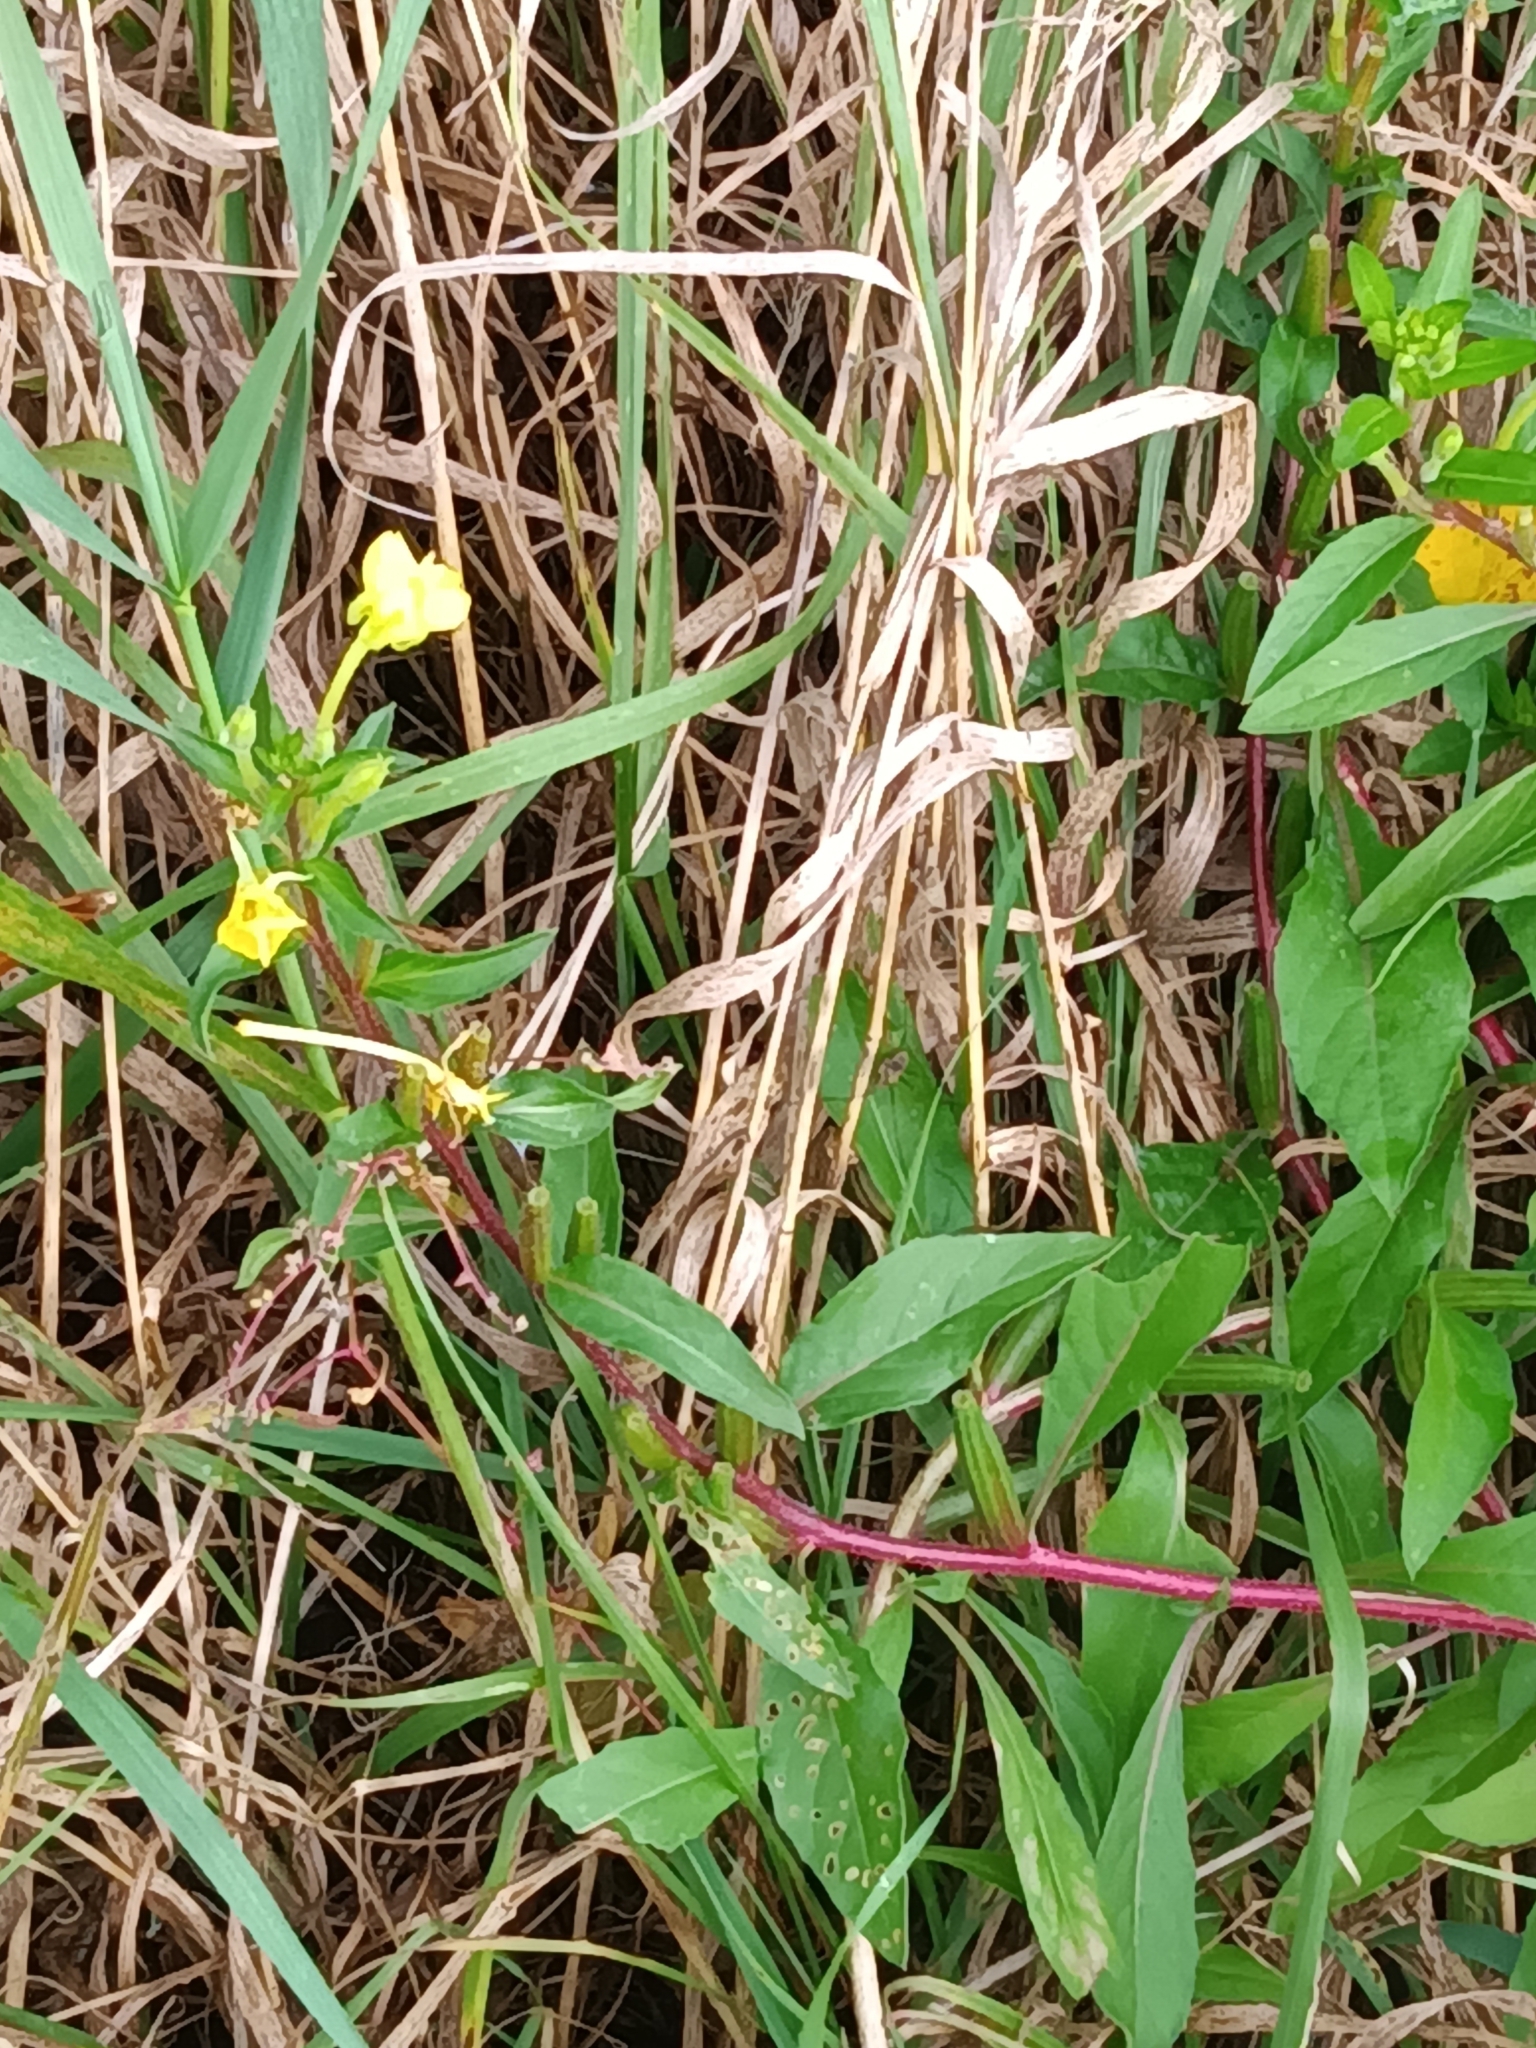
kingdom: Plantae
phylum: Tracheophyta
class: Magnoliopsida
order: Myrtales
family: Onagraceae
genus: Oenothera
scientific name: Oenothera biennis
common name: Common evening-primrose
